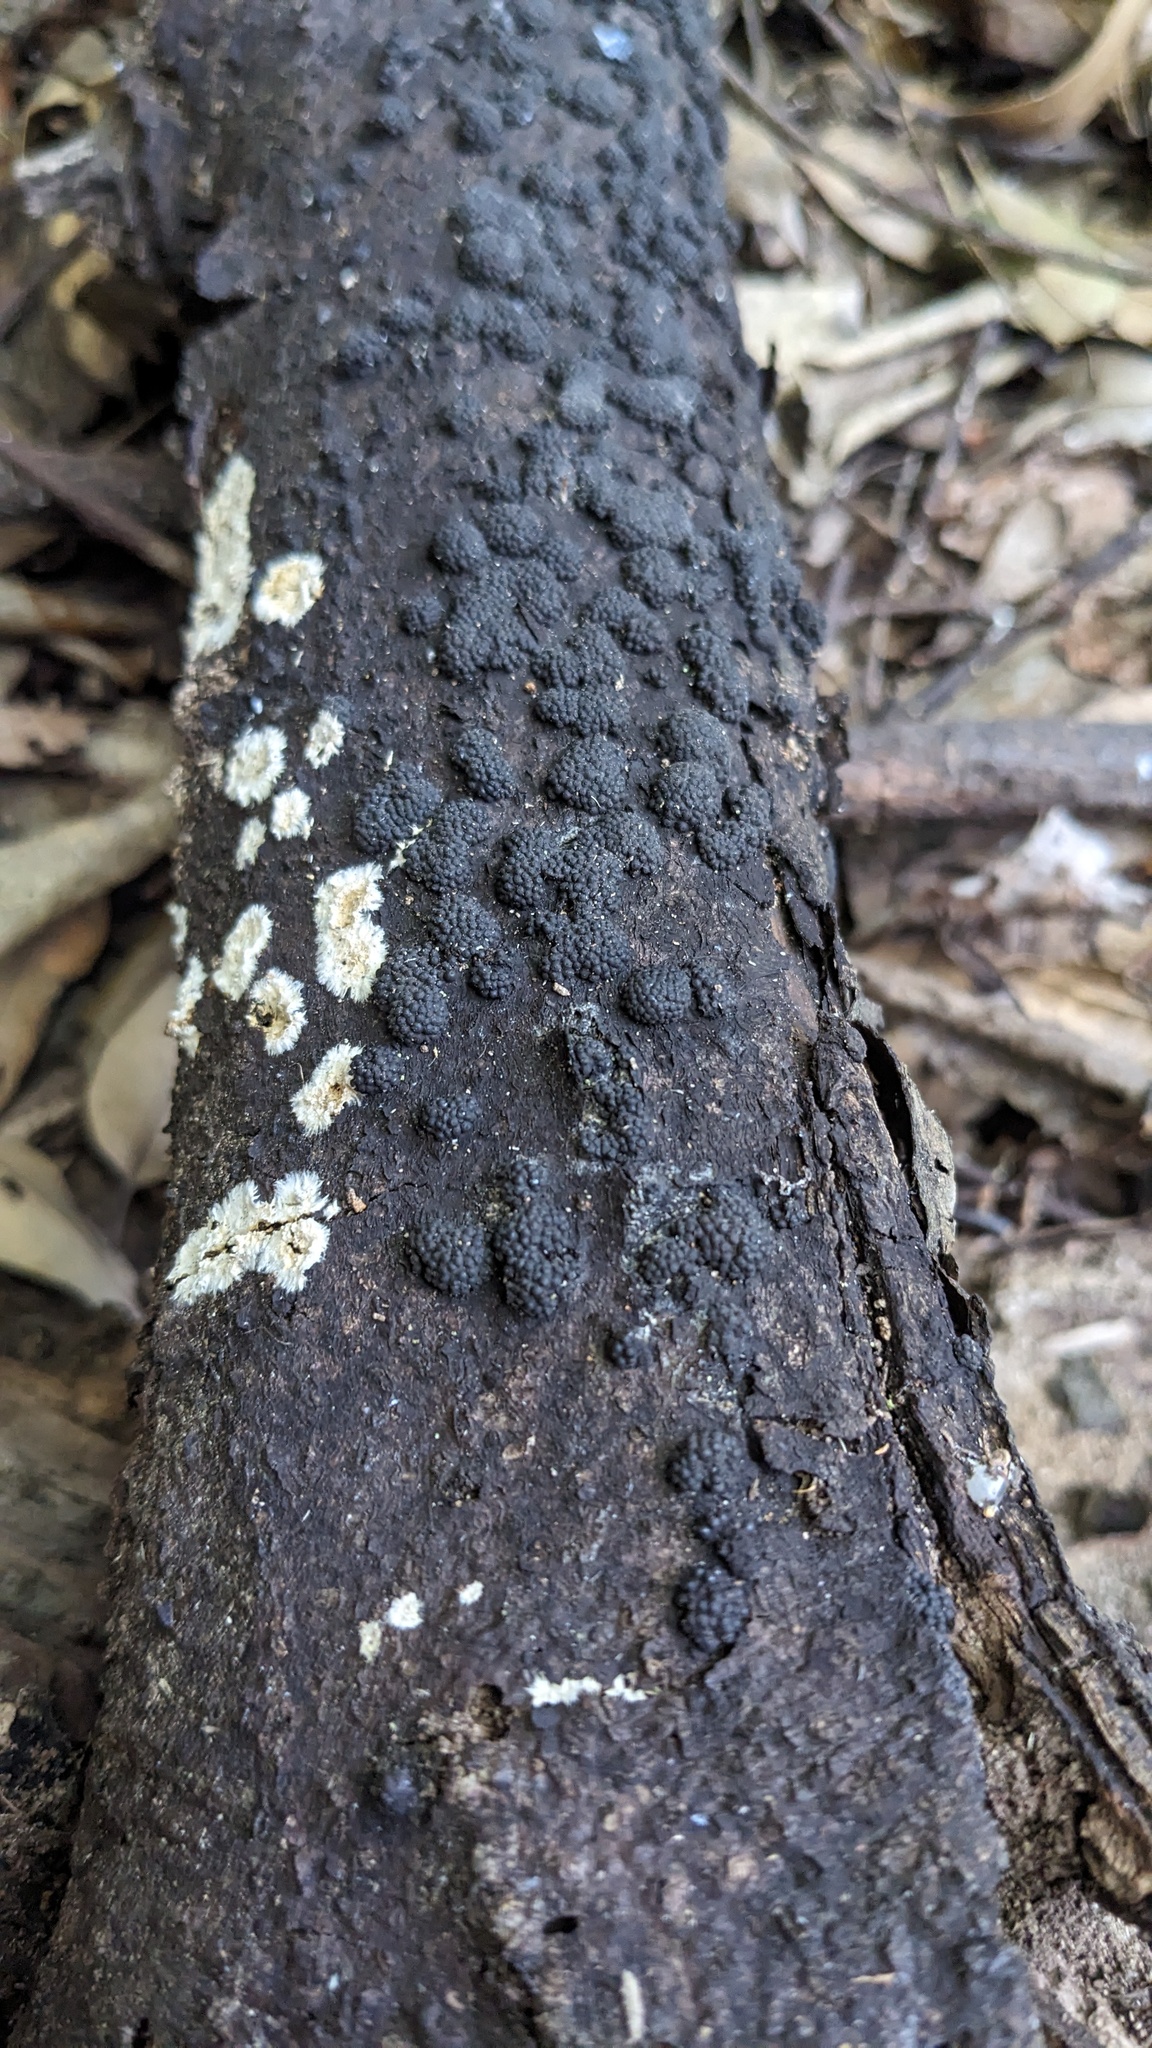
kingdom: Fungi
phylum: Ascomycota
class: Sordariomycetes
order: Xylariales
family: Hypoxylaceae
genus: Annulohypoxylon
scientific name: Annulohypoxylon truncatum
